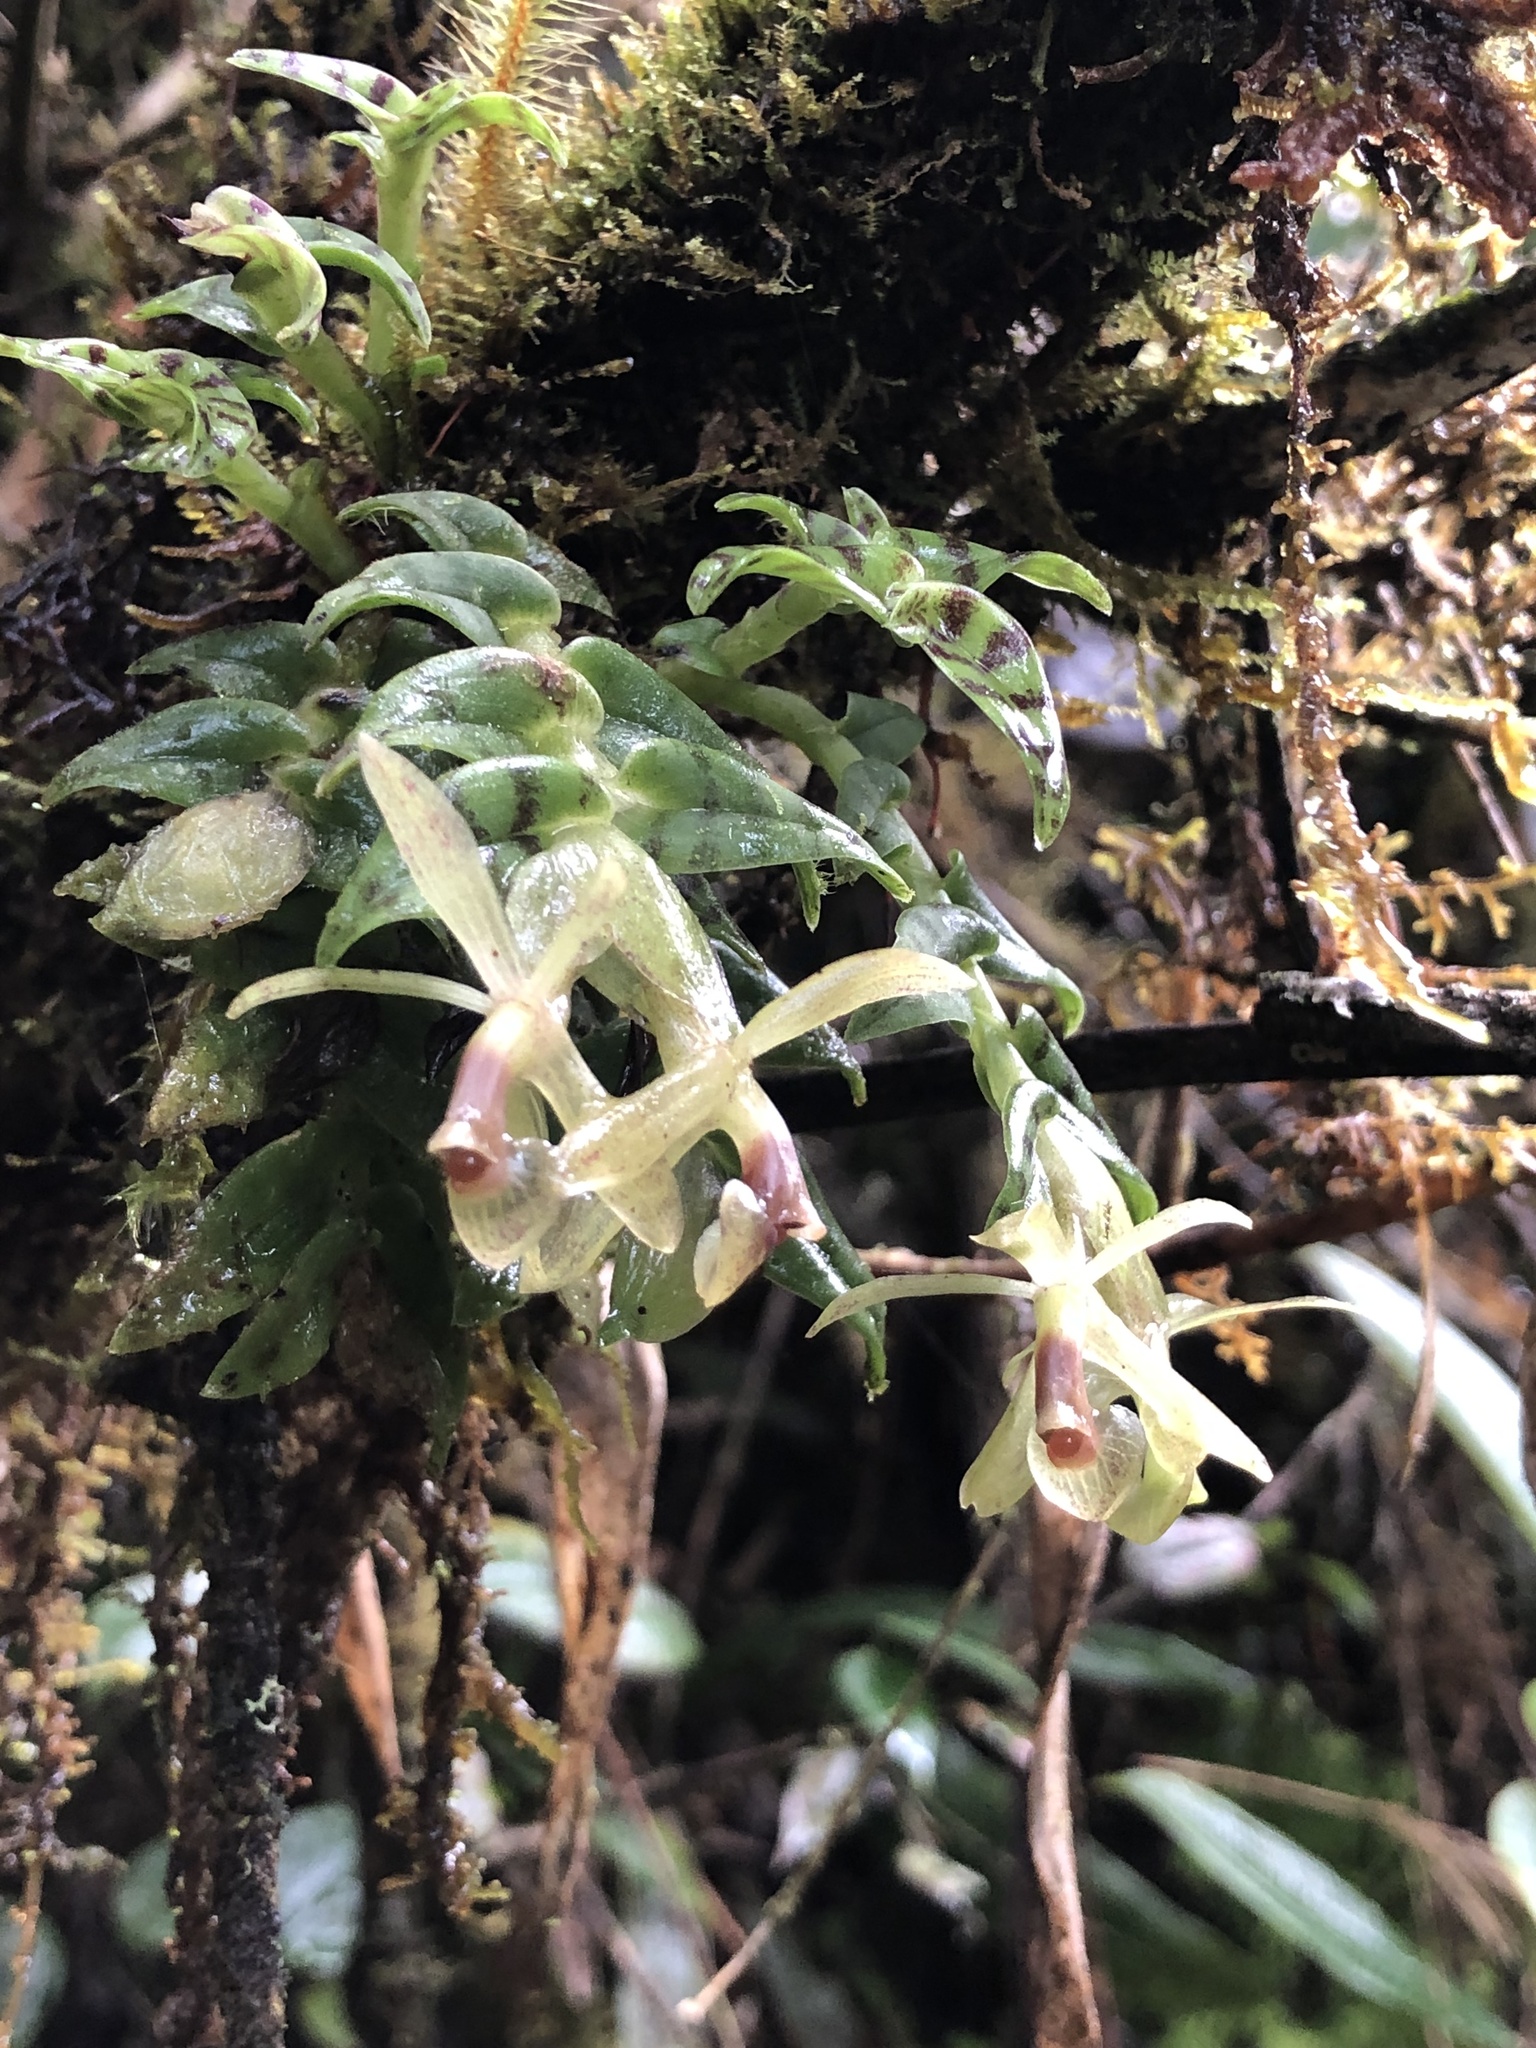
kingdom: Plantae
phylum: Tracheophyta
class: Liliopsida
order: Asparagales
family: Orchidaceae
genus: Epidendrum
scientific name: Epidendrum stanhopeanum
